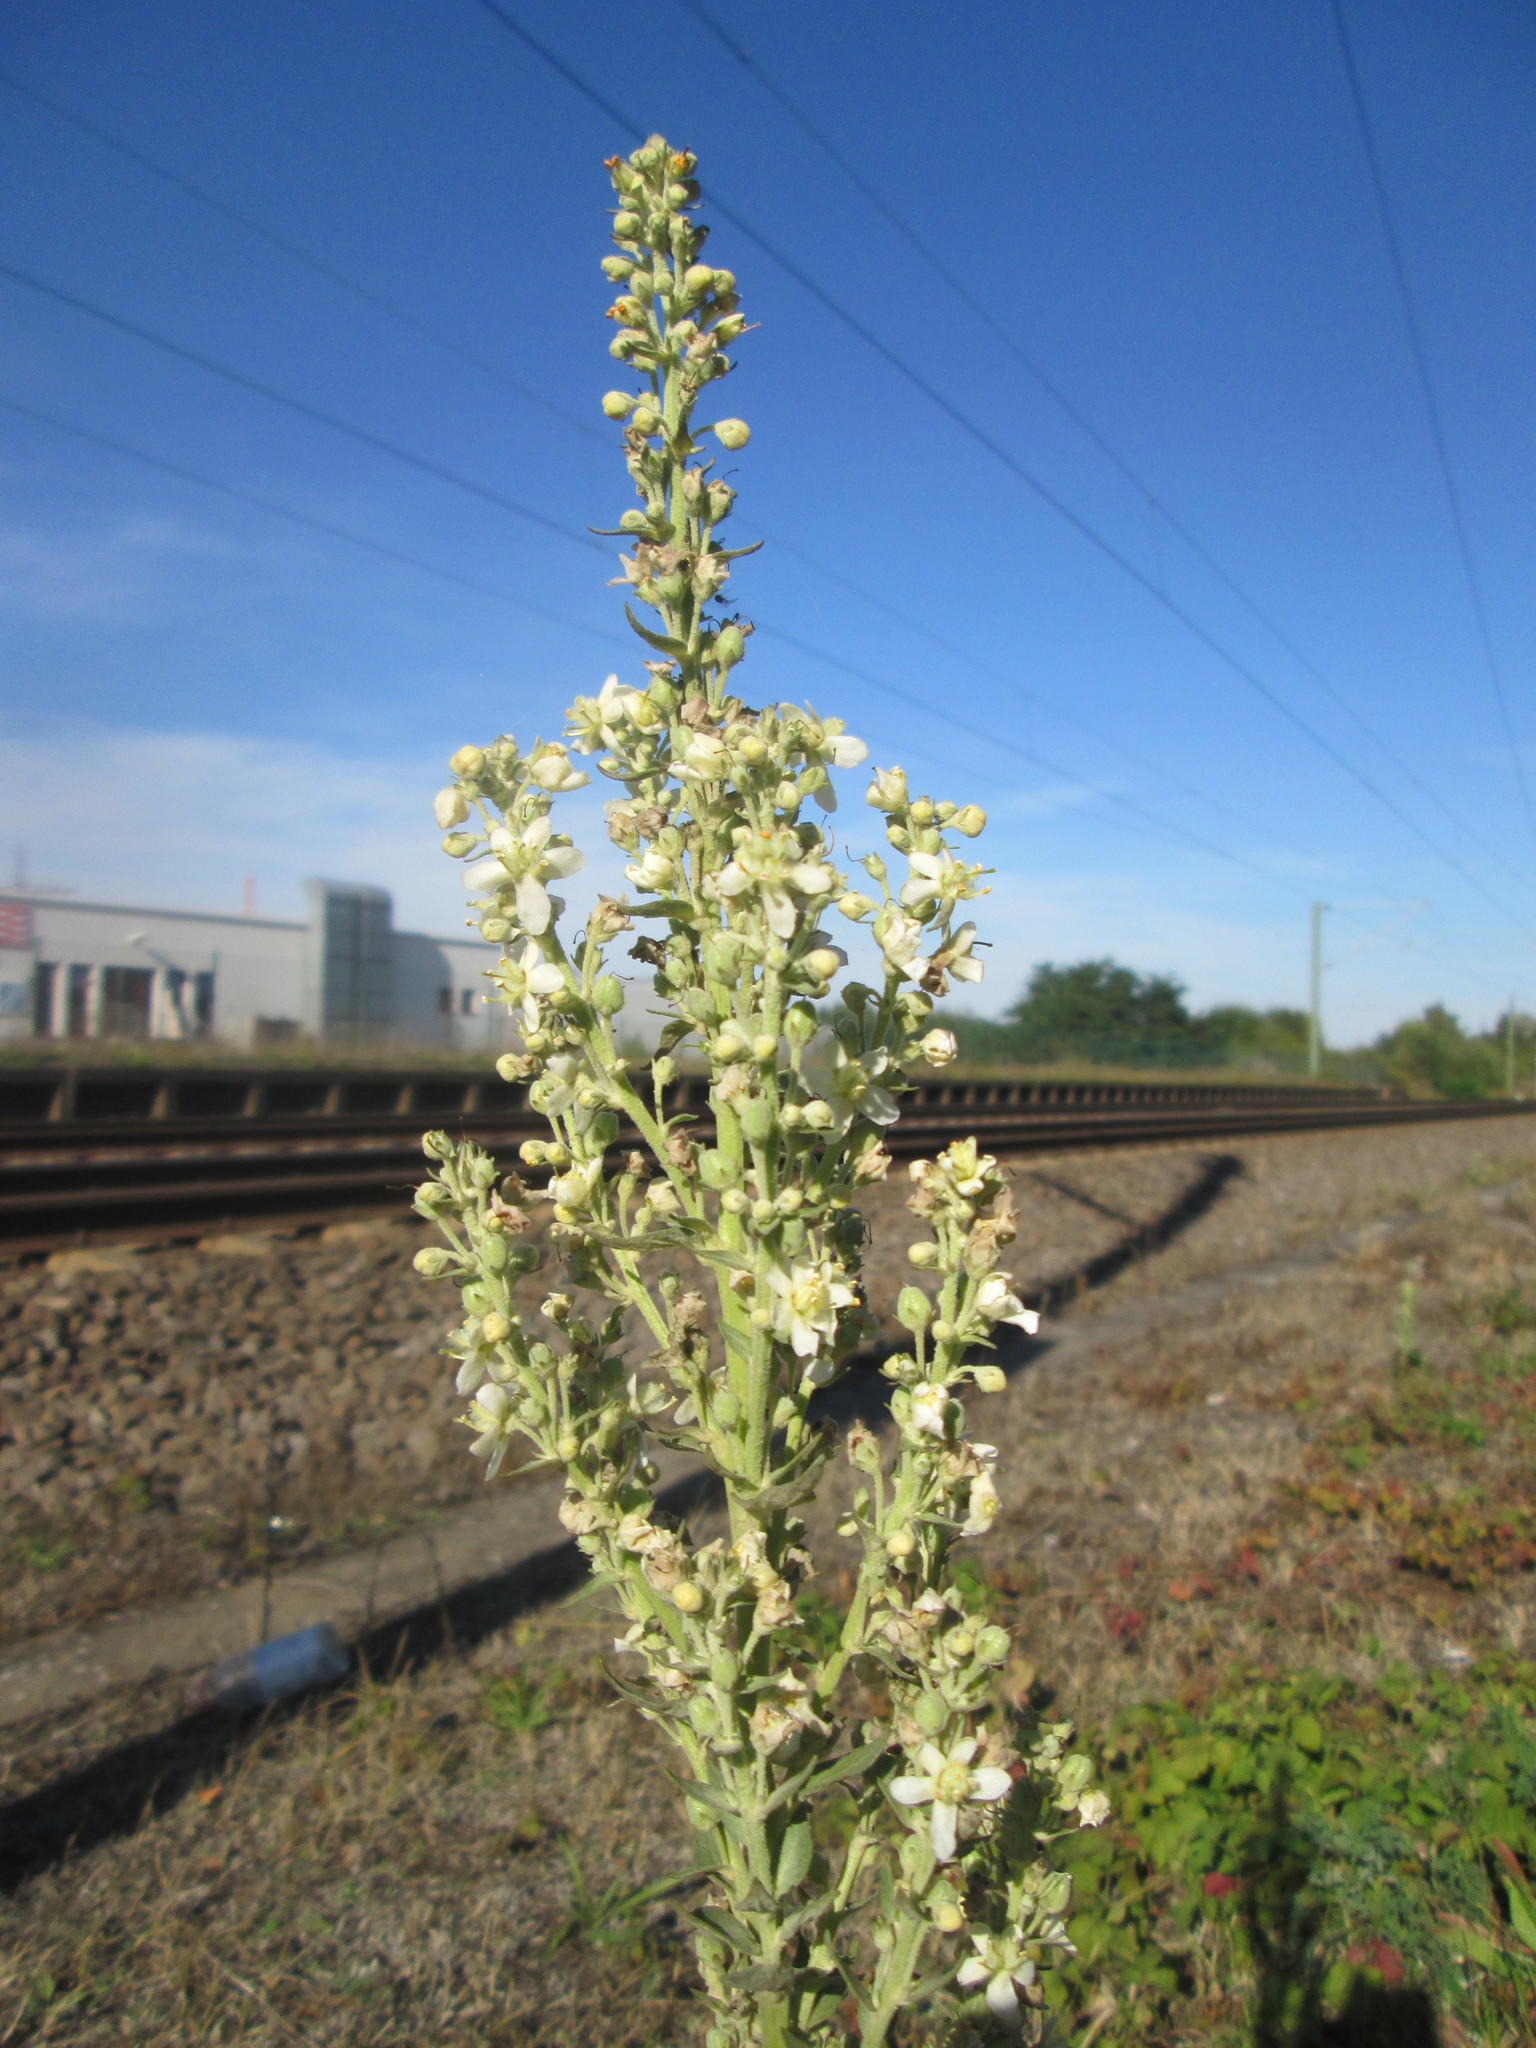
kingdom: Plantae
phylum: Tracheophyta
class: Magnoliopsida
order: Lamiales
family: Scrophulariaceae
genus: Verbascum
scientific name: Verbascum lychnitis
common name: White mullein
